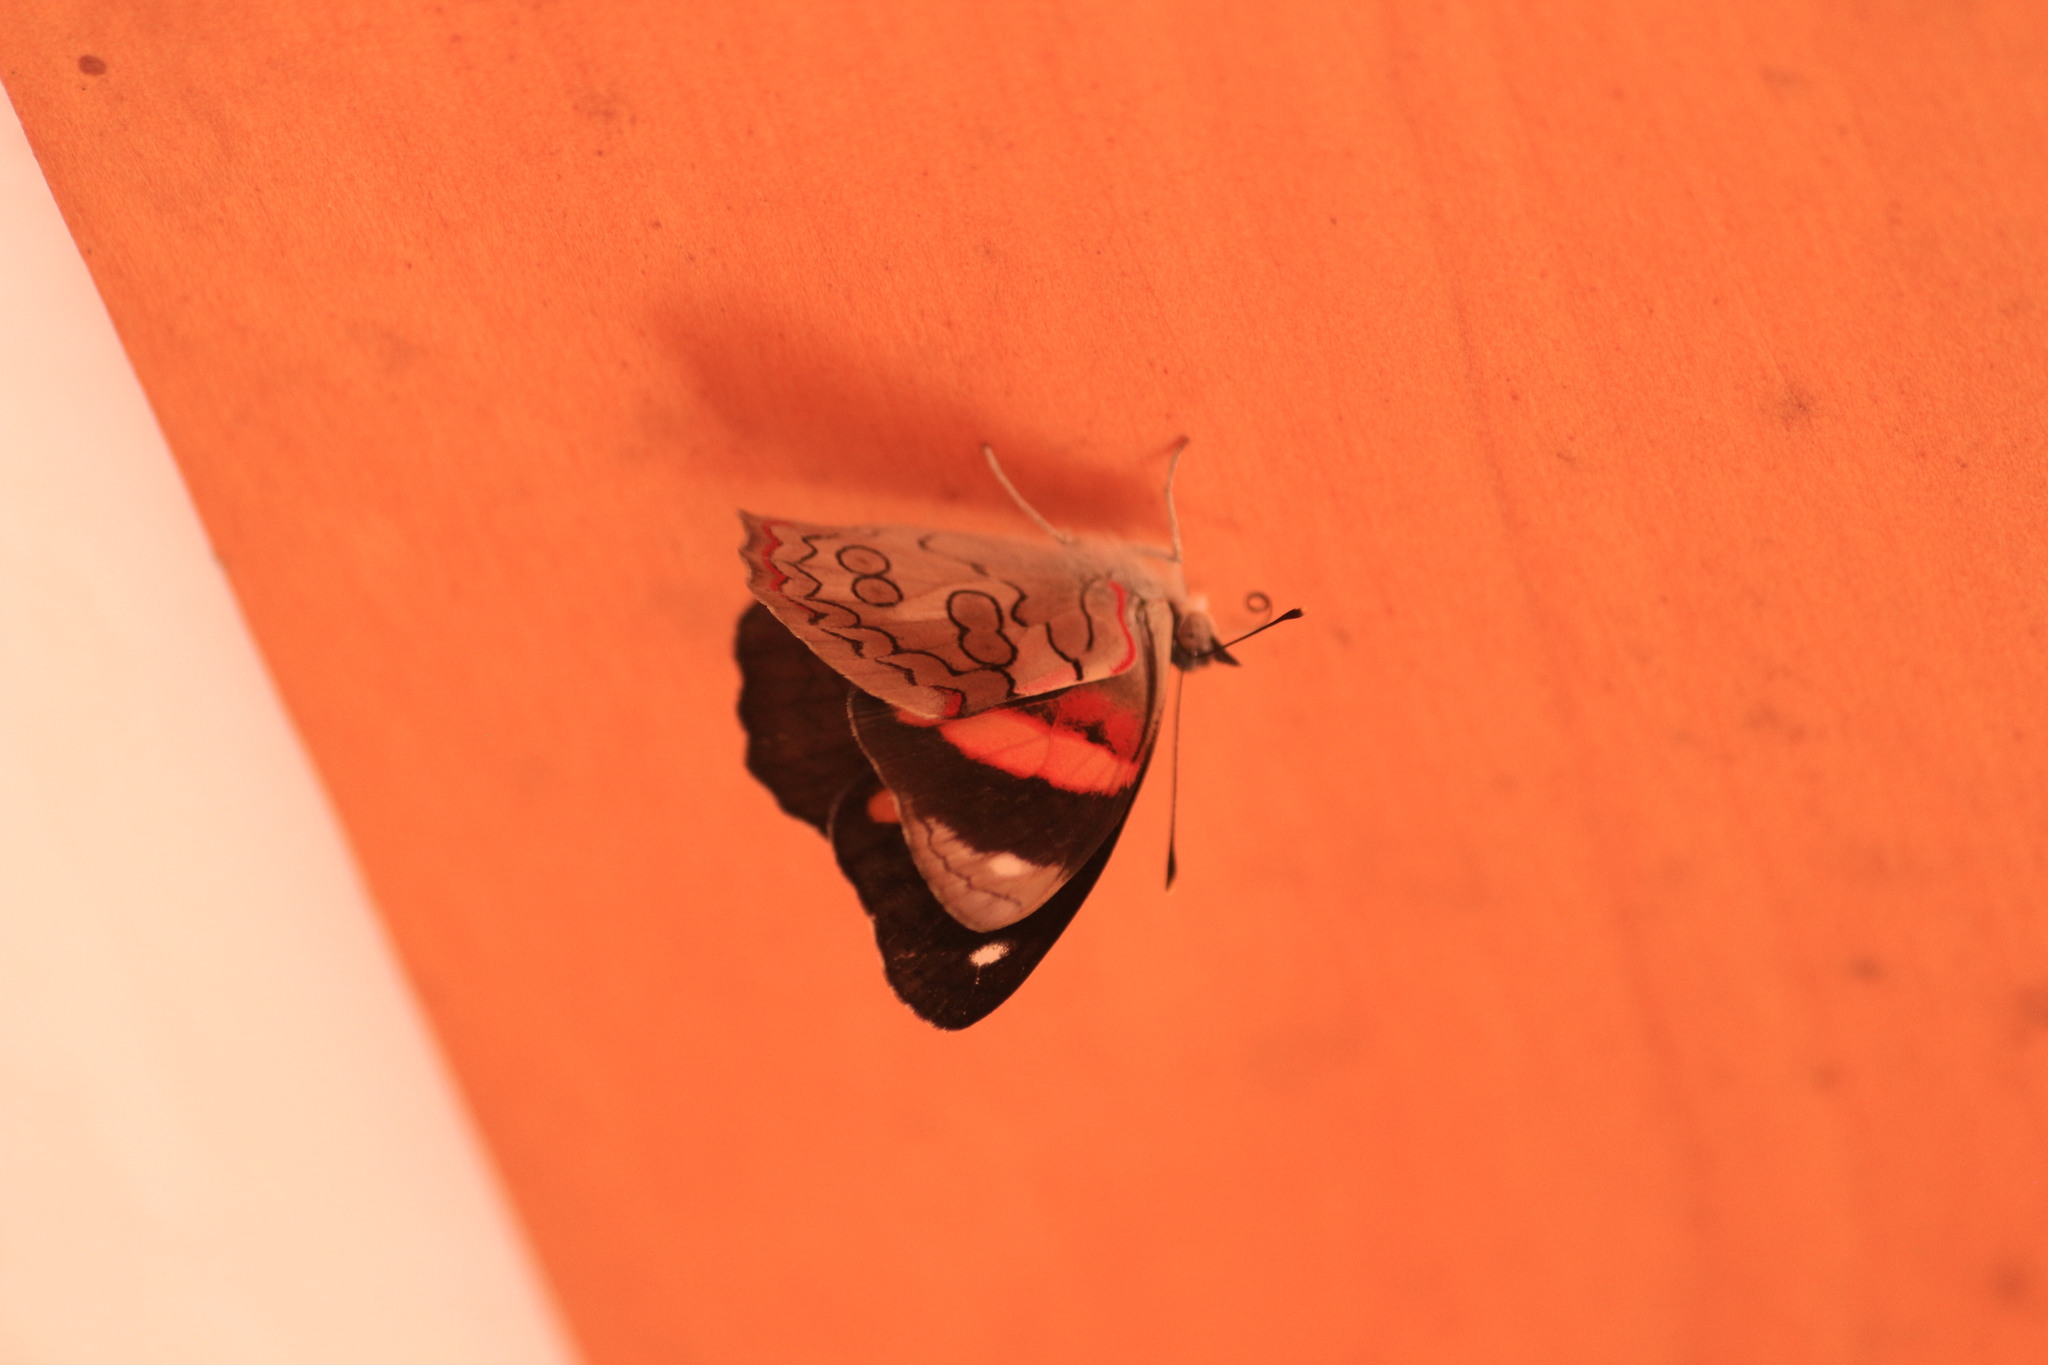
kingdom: Animalia
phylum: Arthropoda
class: Insecta
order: Lepidoptera
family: Nymphalidae
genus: Diaethria
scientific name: Diaethria pandama
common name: Orange-striped eighty-eight
